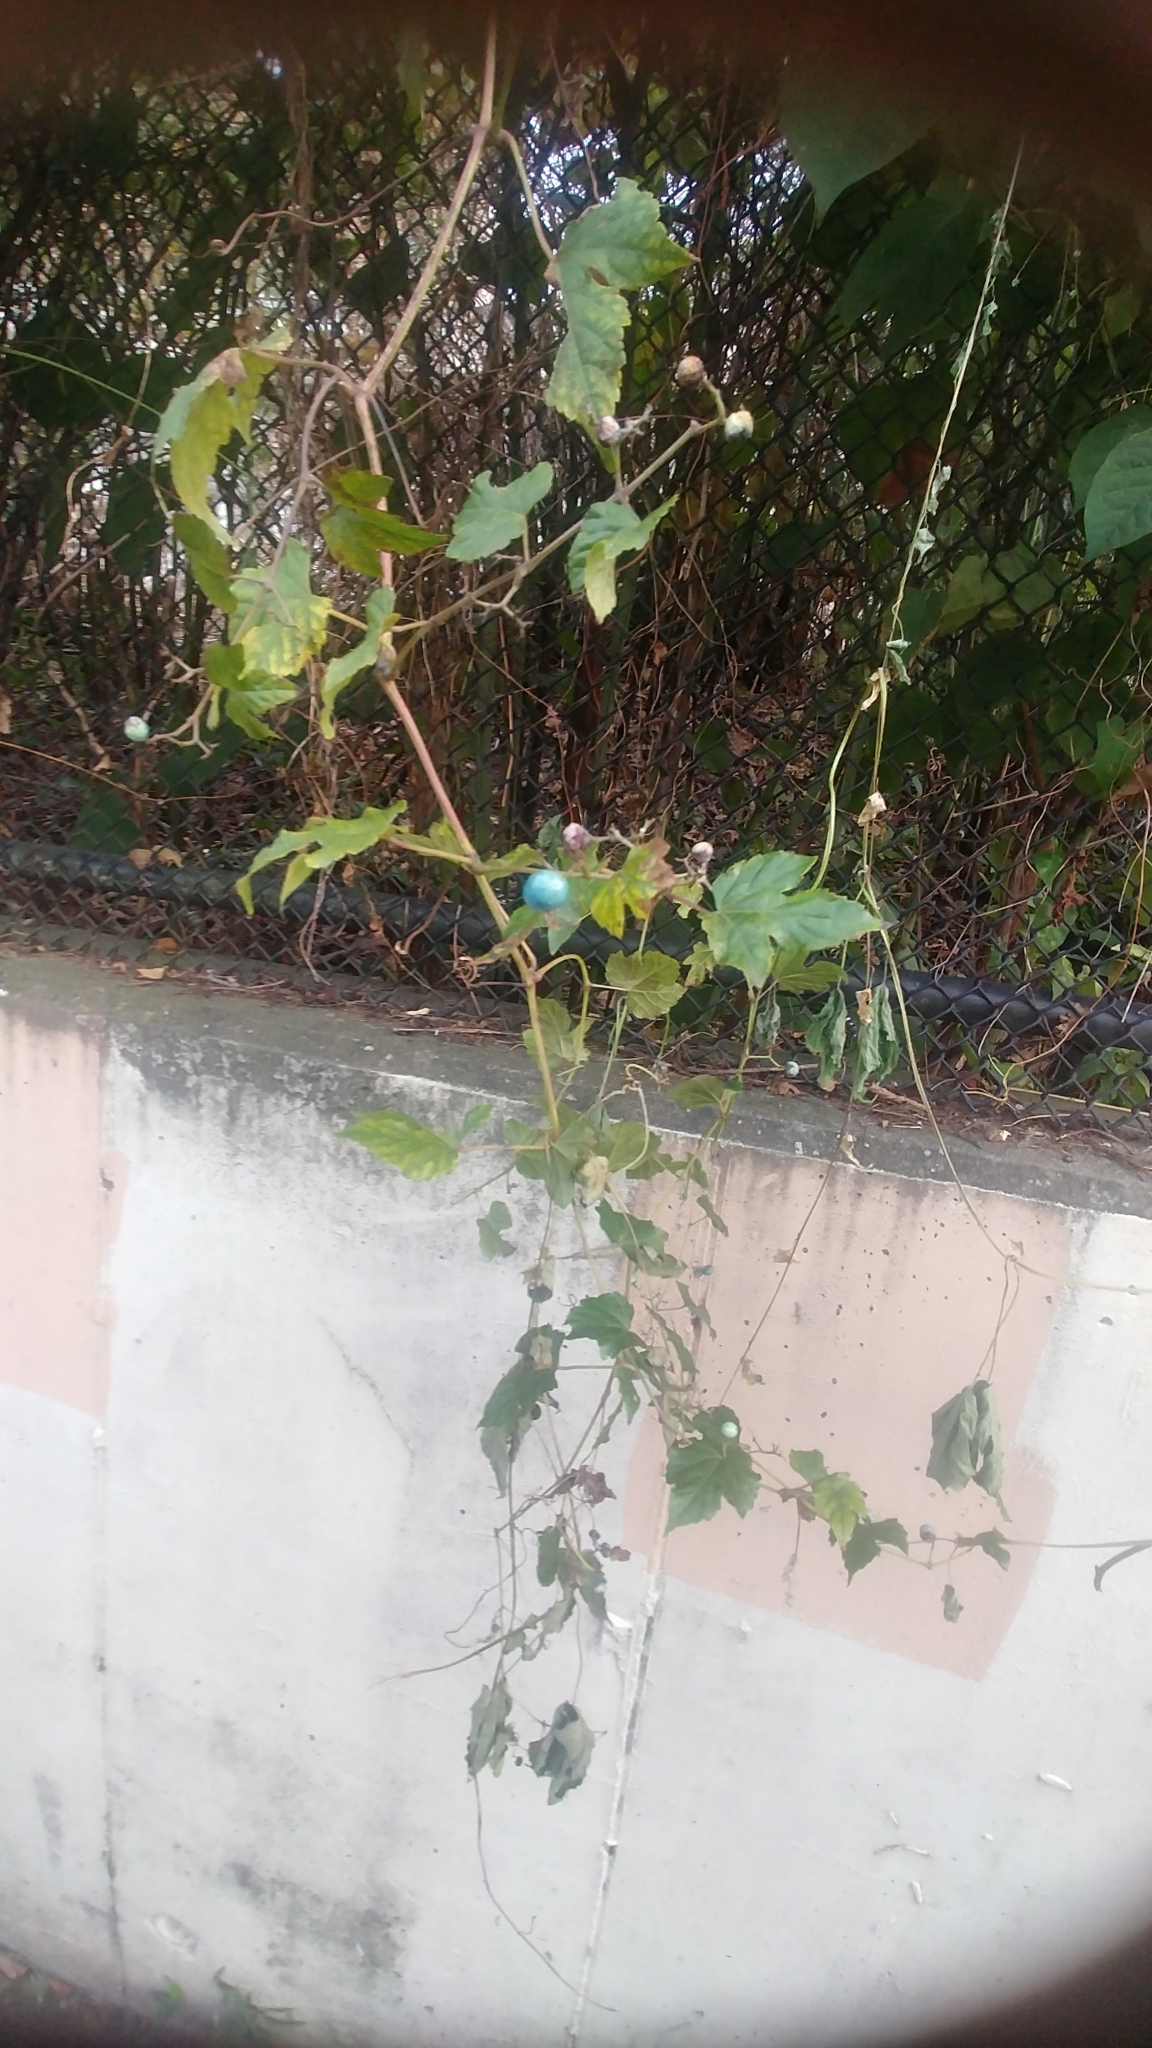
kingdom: Plantae
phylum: Tracheophyta
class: Magnoliopsida
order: Vitales
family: Vitaceae
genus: Ampelopsis
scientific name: Ampelopsis glandulosa
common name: Amur peppervine
